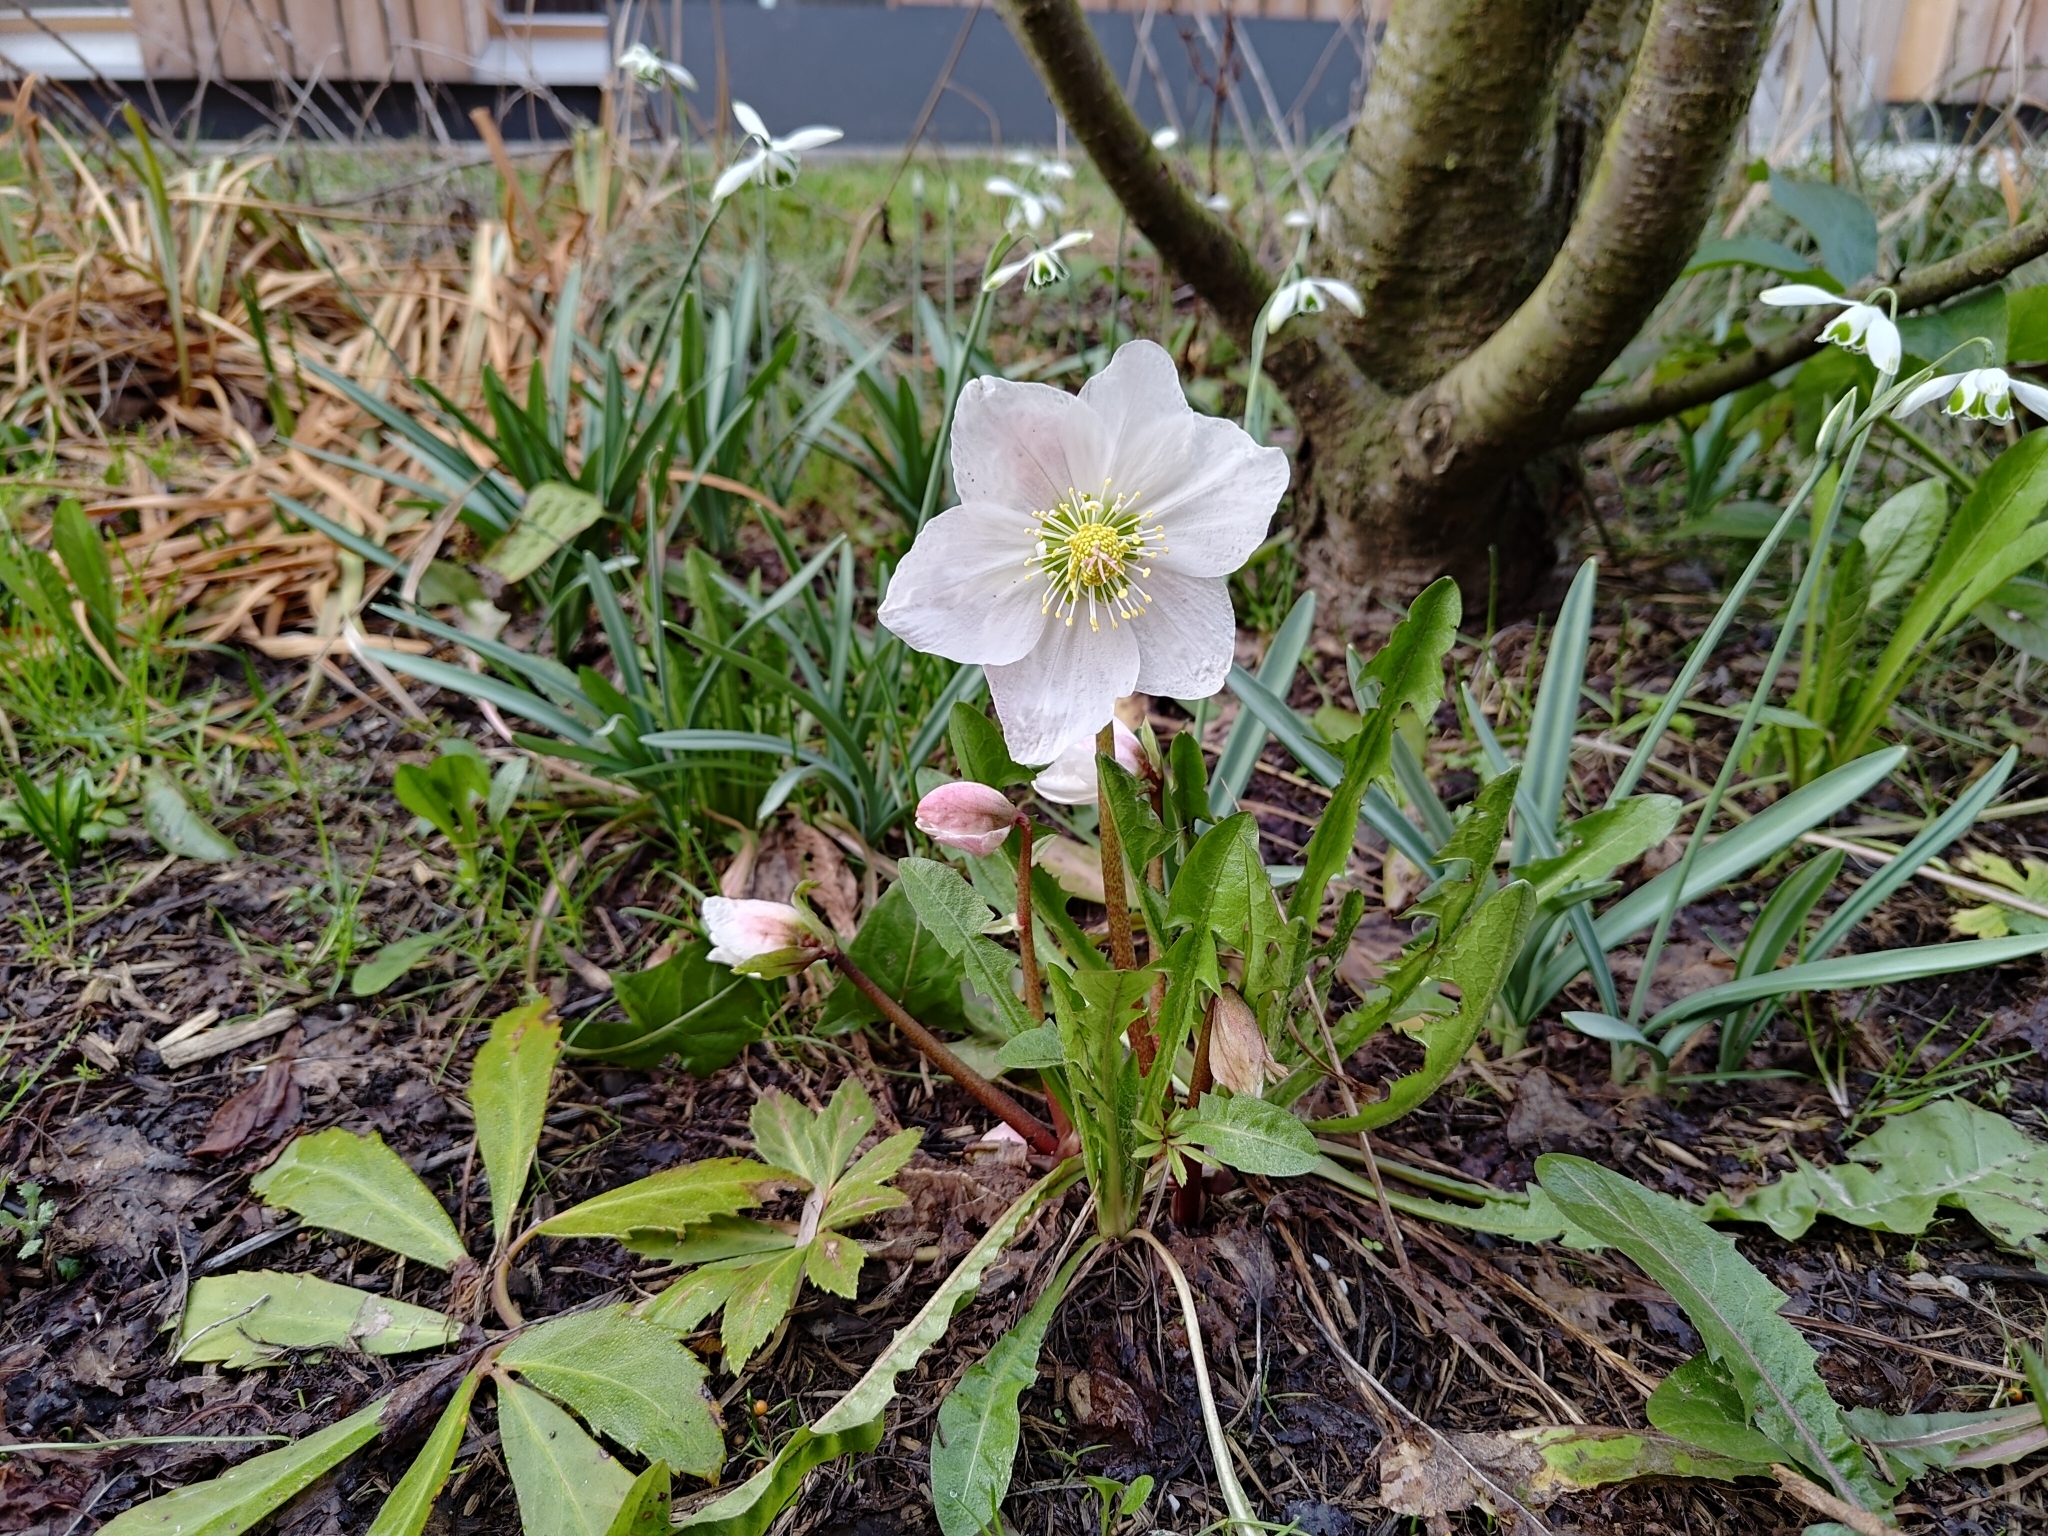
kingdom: Plantae
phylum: Tracheophyta
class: Magnoliopsida
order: Ranunculales
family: Ranunculaceae
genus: Helleborus
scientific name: Helleborus niger
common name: Black hellebore
